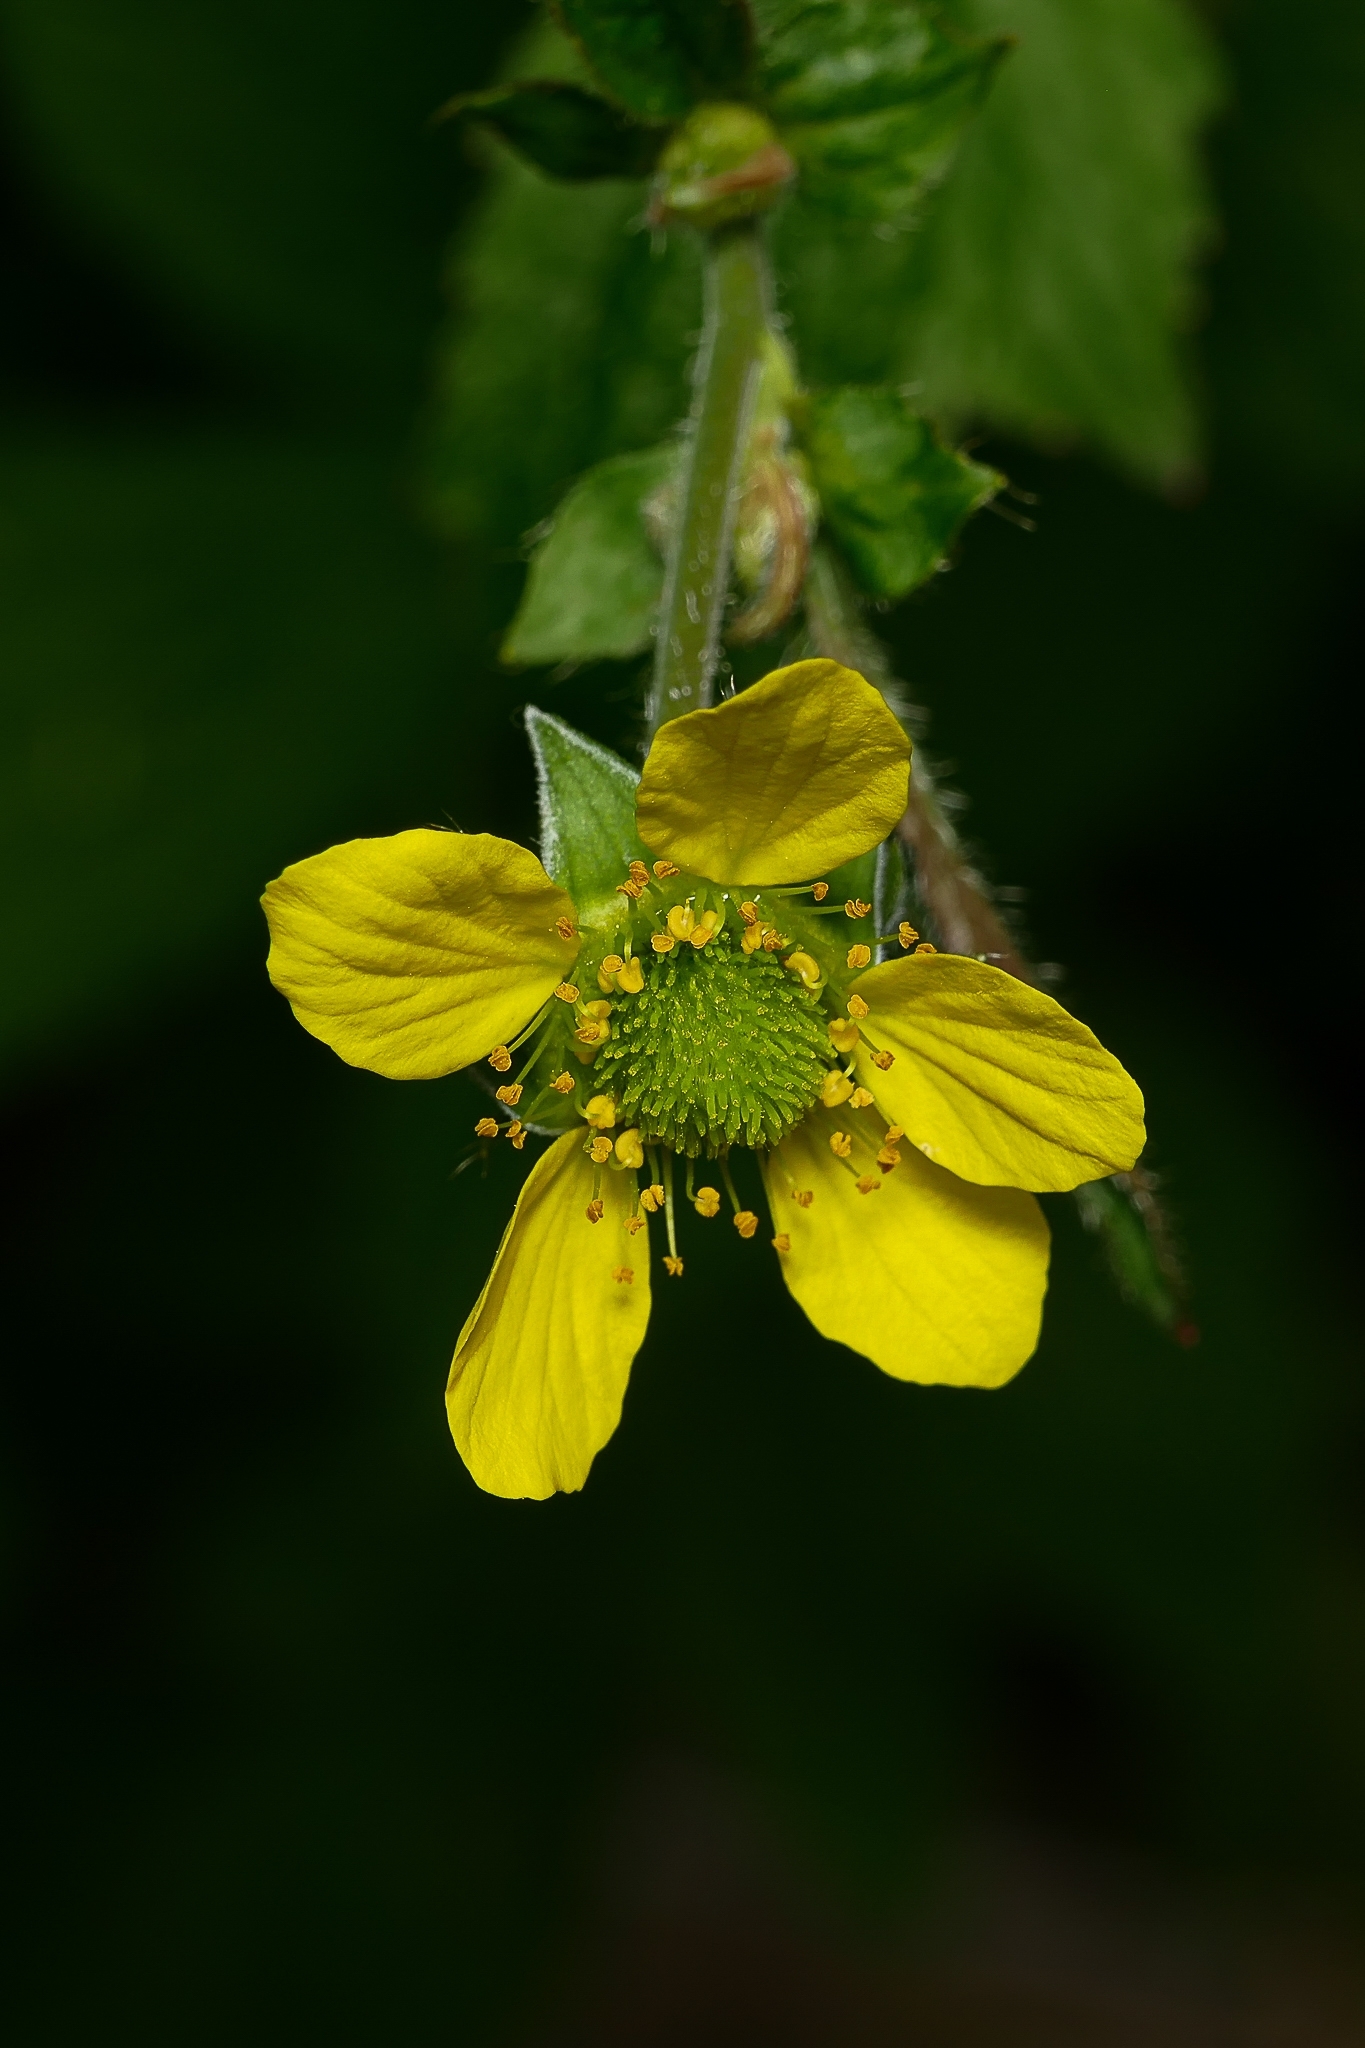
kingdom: Plantae
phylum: Tracheophyta
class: Magnoliopsida
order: Rosales
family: Rosaceae
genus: Geum
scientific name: Geum urbanum
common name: Wood avens
